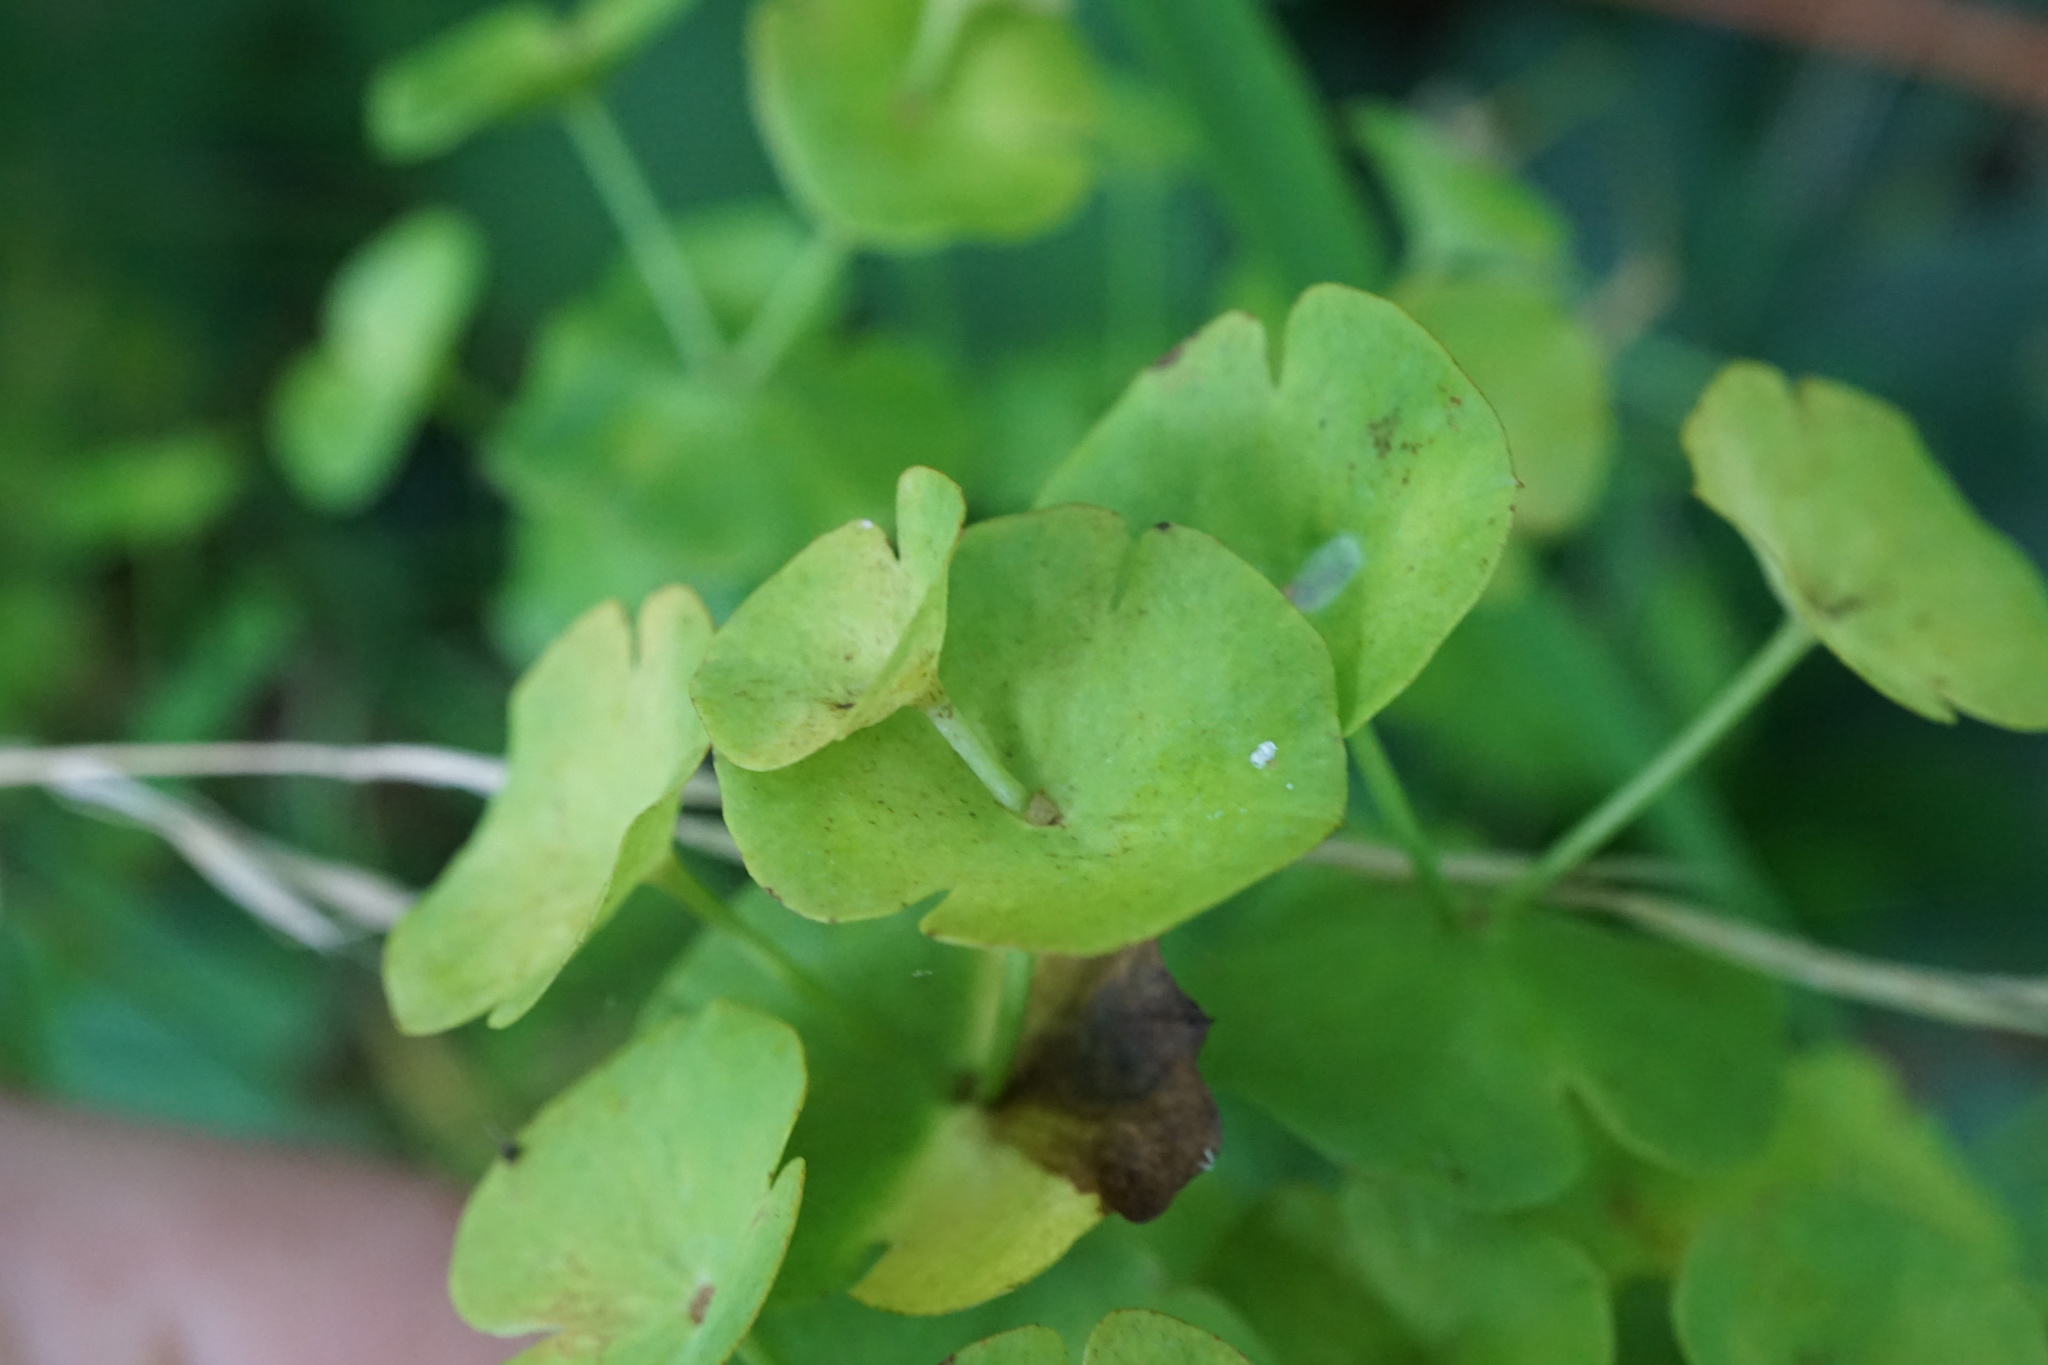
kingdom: Plantae
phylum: Tracheophyta
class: Magnoliopsida
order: Malpighiales
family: Euphorbiaceae
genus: Euphorbia
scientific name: Euphorbia amygdaloides
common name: Wood spurge
